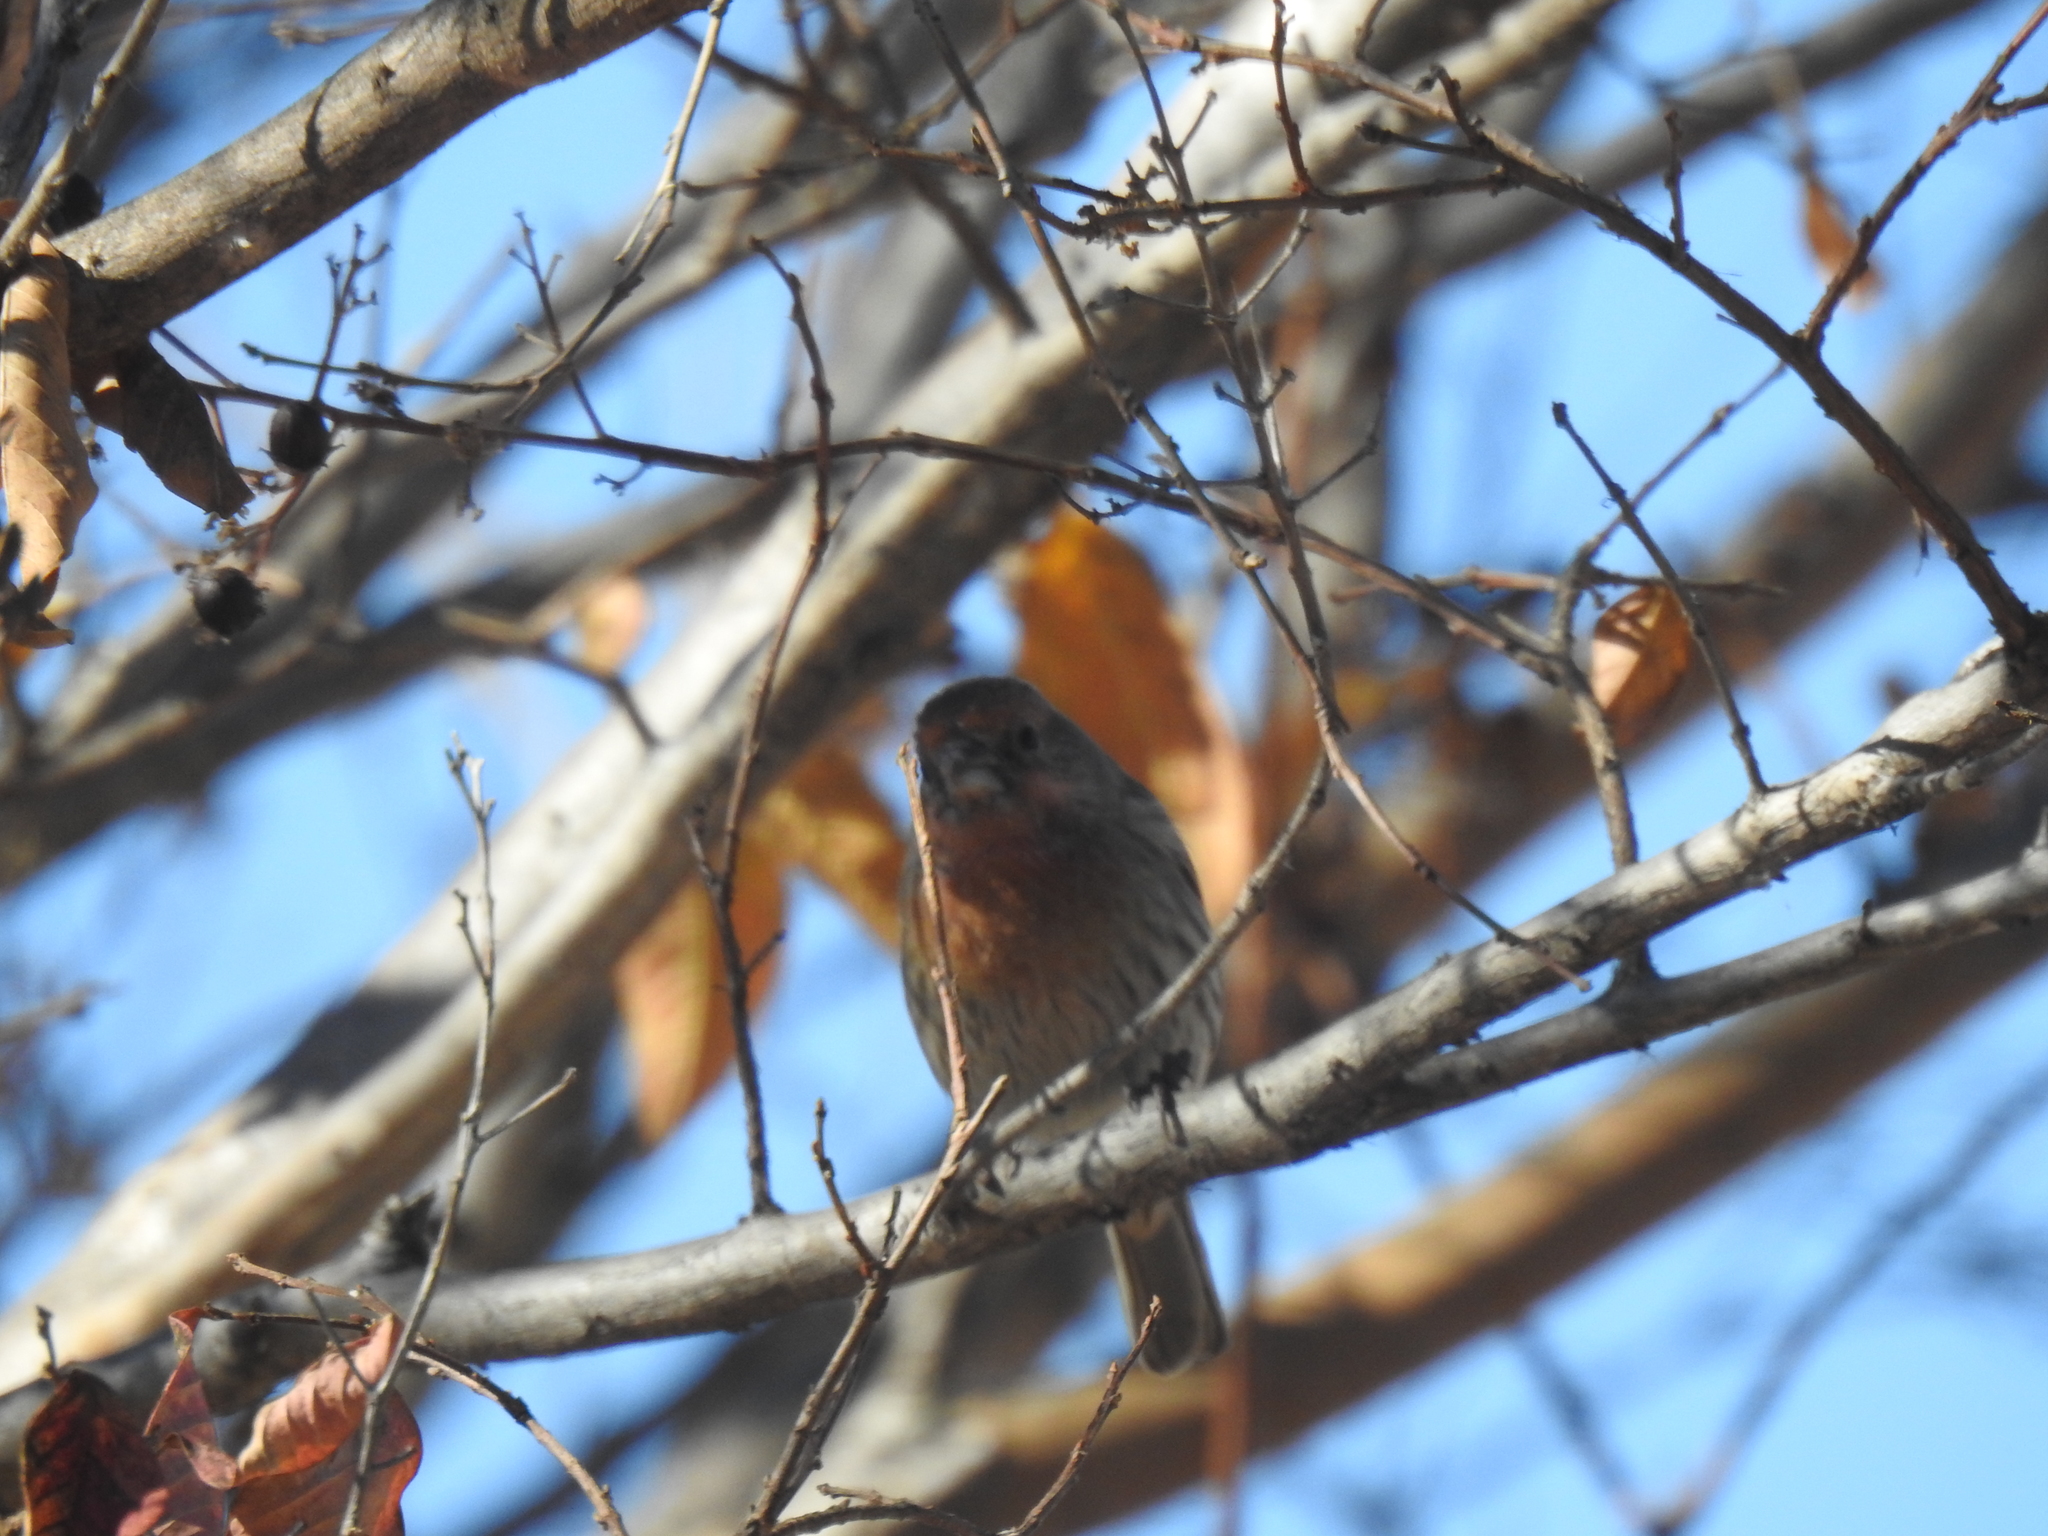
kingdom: Animalia
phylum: Chordata
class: Aves
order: Passeriformes
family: Fringillidae
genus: Haemorhous
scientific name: Haemorhous mexicanus
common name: House finch
